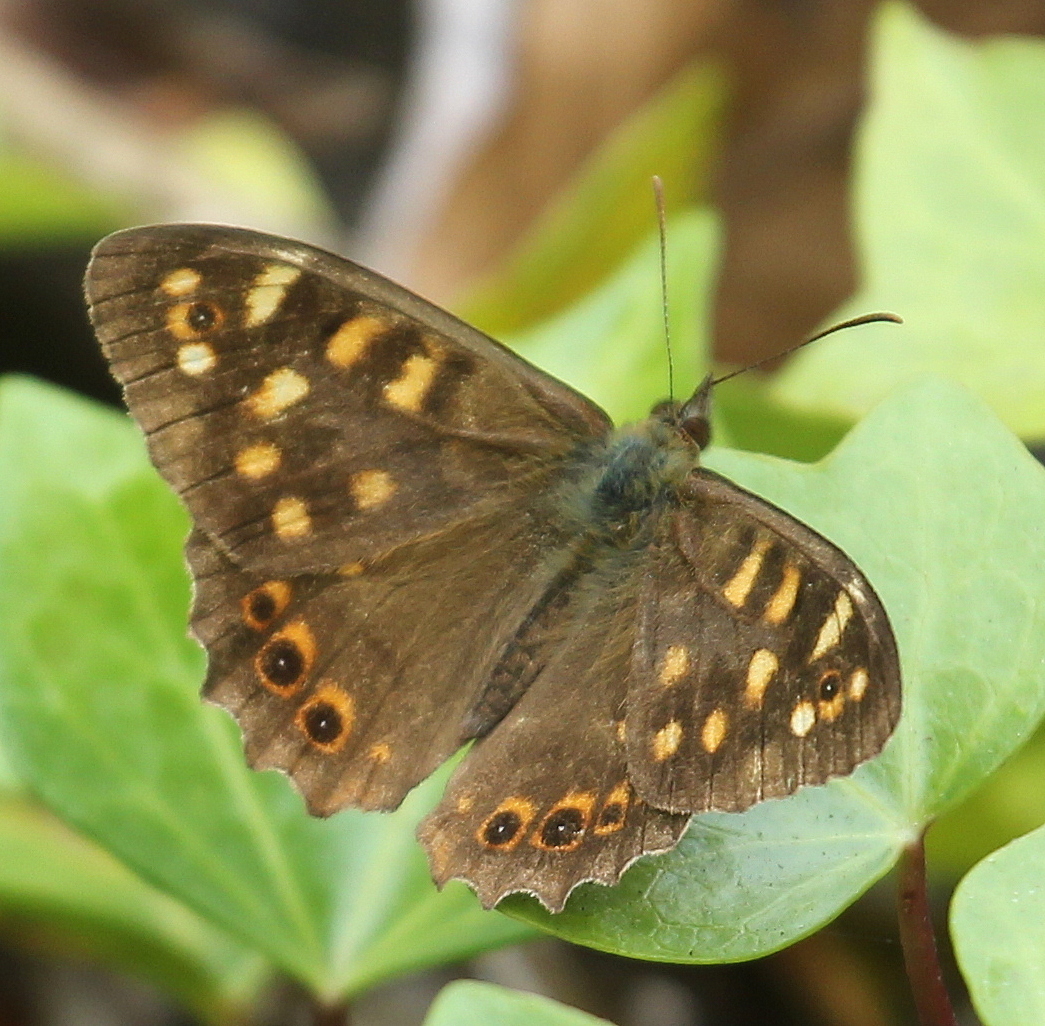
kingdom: Animalia
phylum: Arthropoda
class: Insecta
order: Lepidoptera
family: Nymphalidae
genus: Pararge
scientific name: Pararge aegeria
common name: Speckled wood
